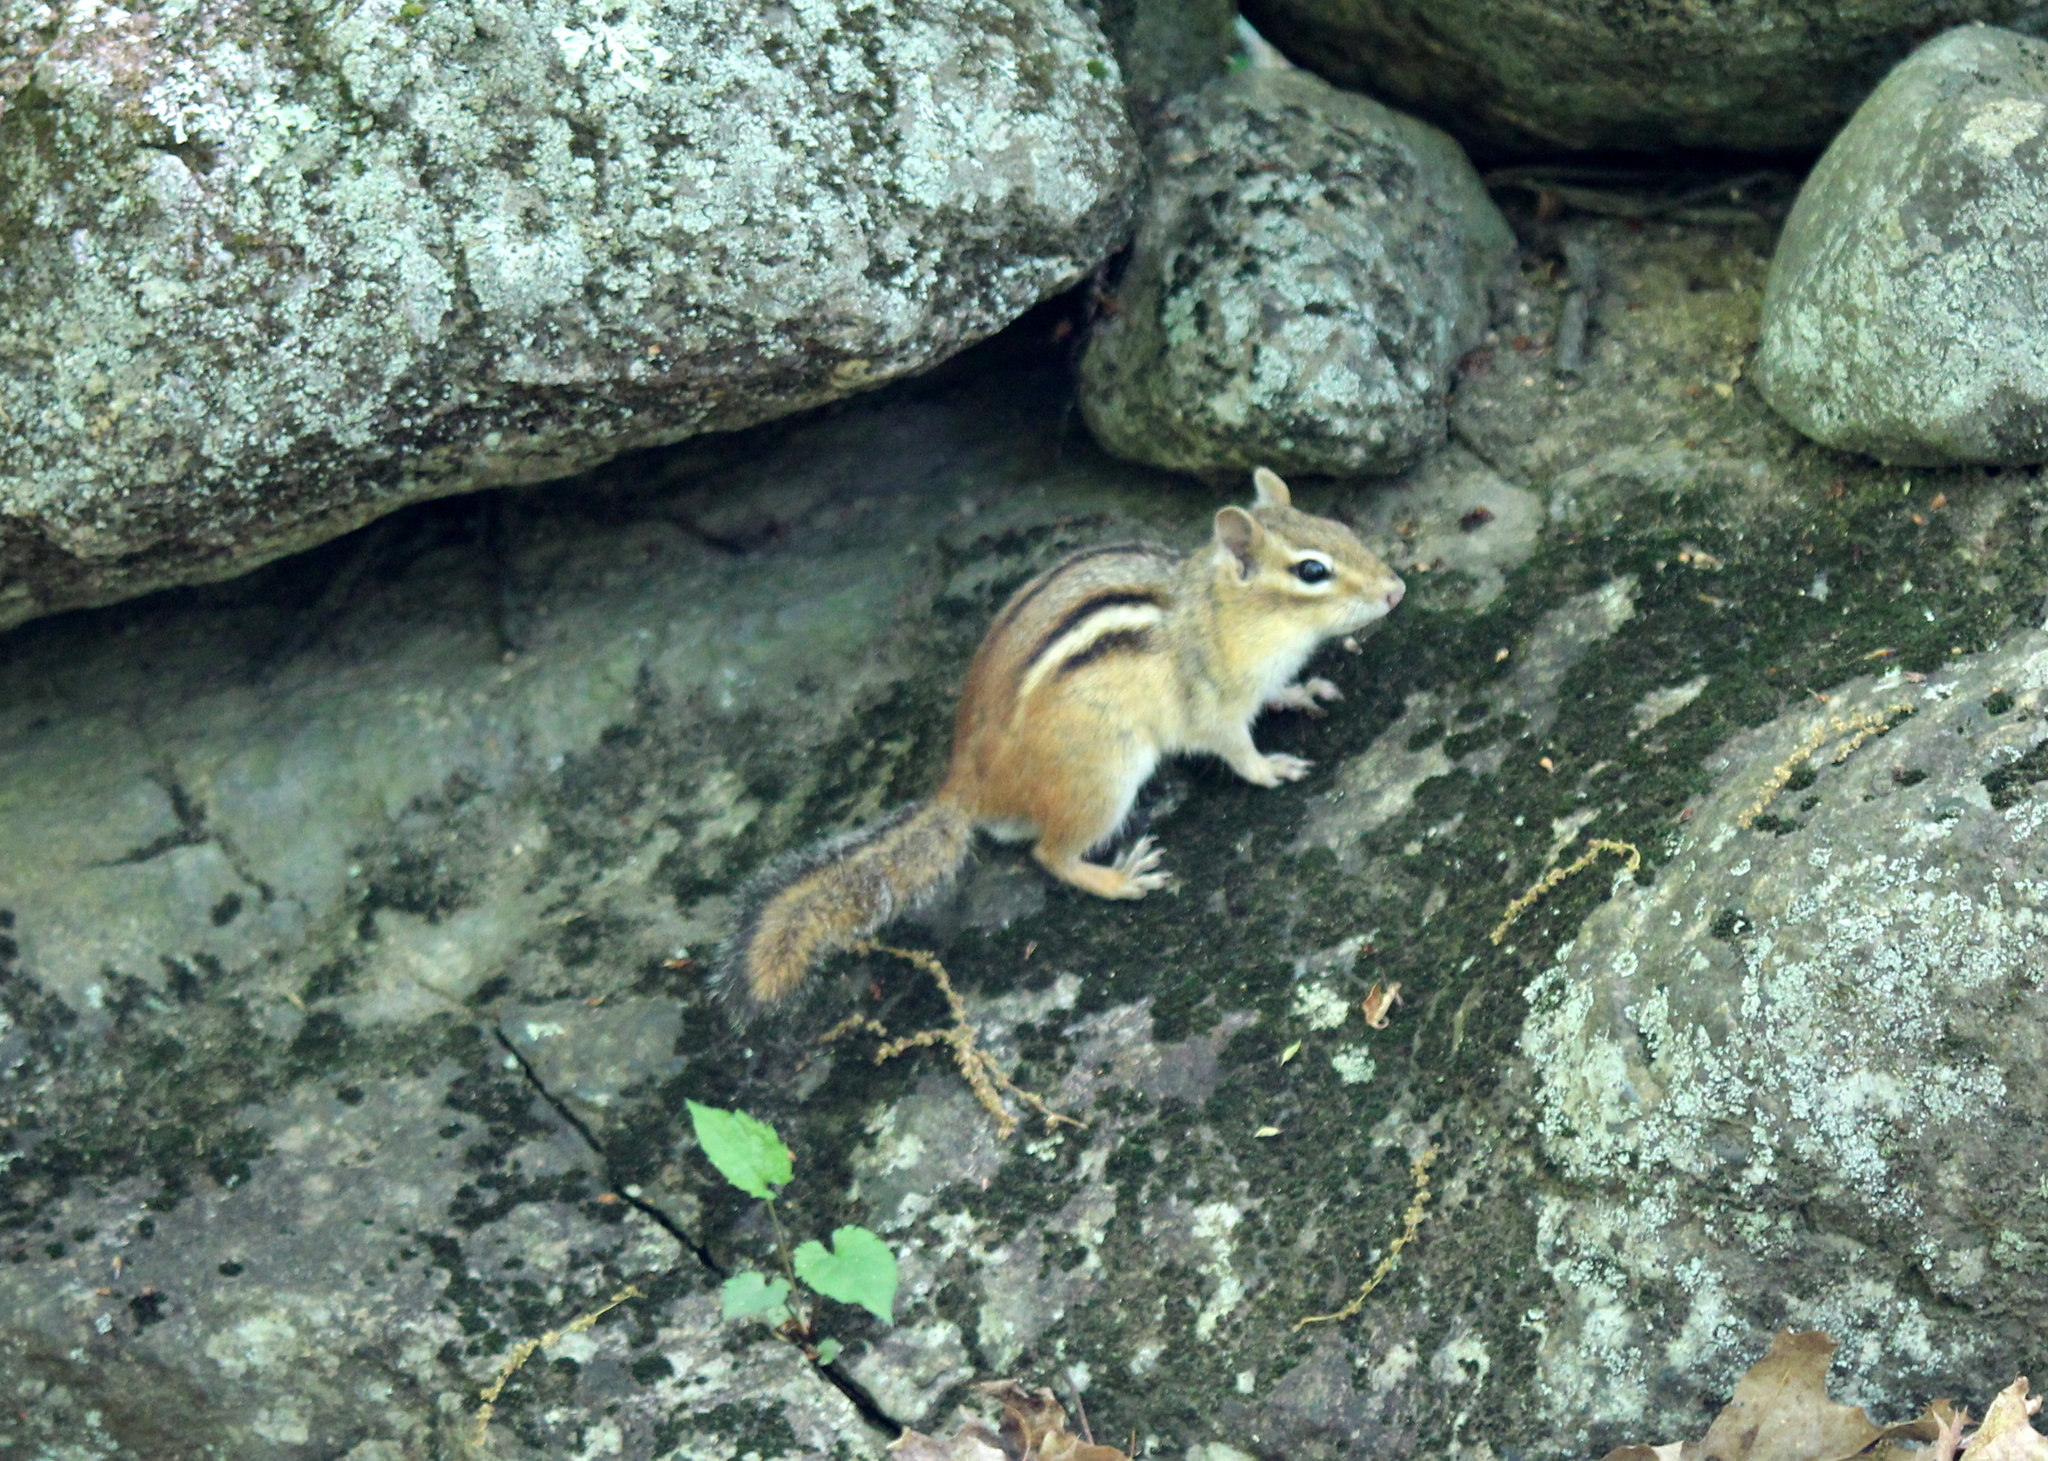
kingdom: Animalia
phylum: Chordata
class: Mammalia
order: Rodentia
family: Sciuridae
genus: Tamias
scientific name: Tamias striatus
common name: Eastern chipmunk
